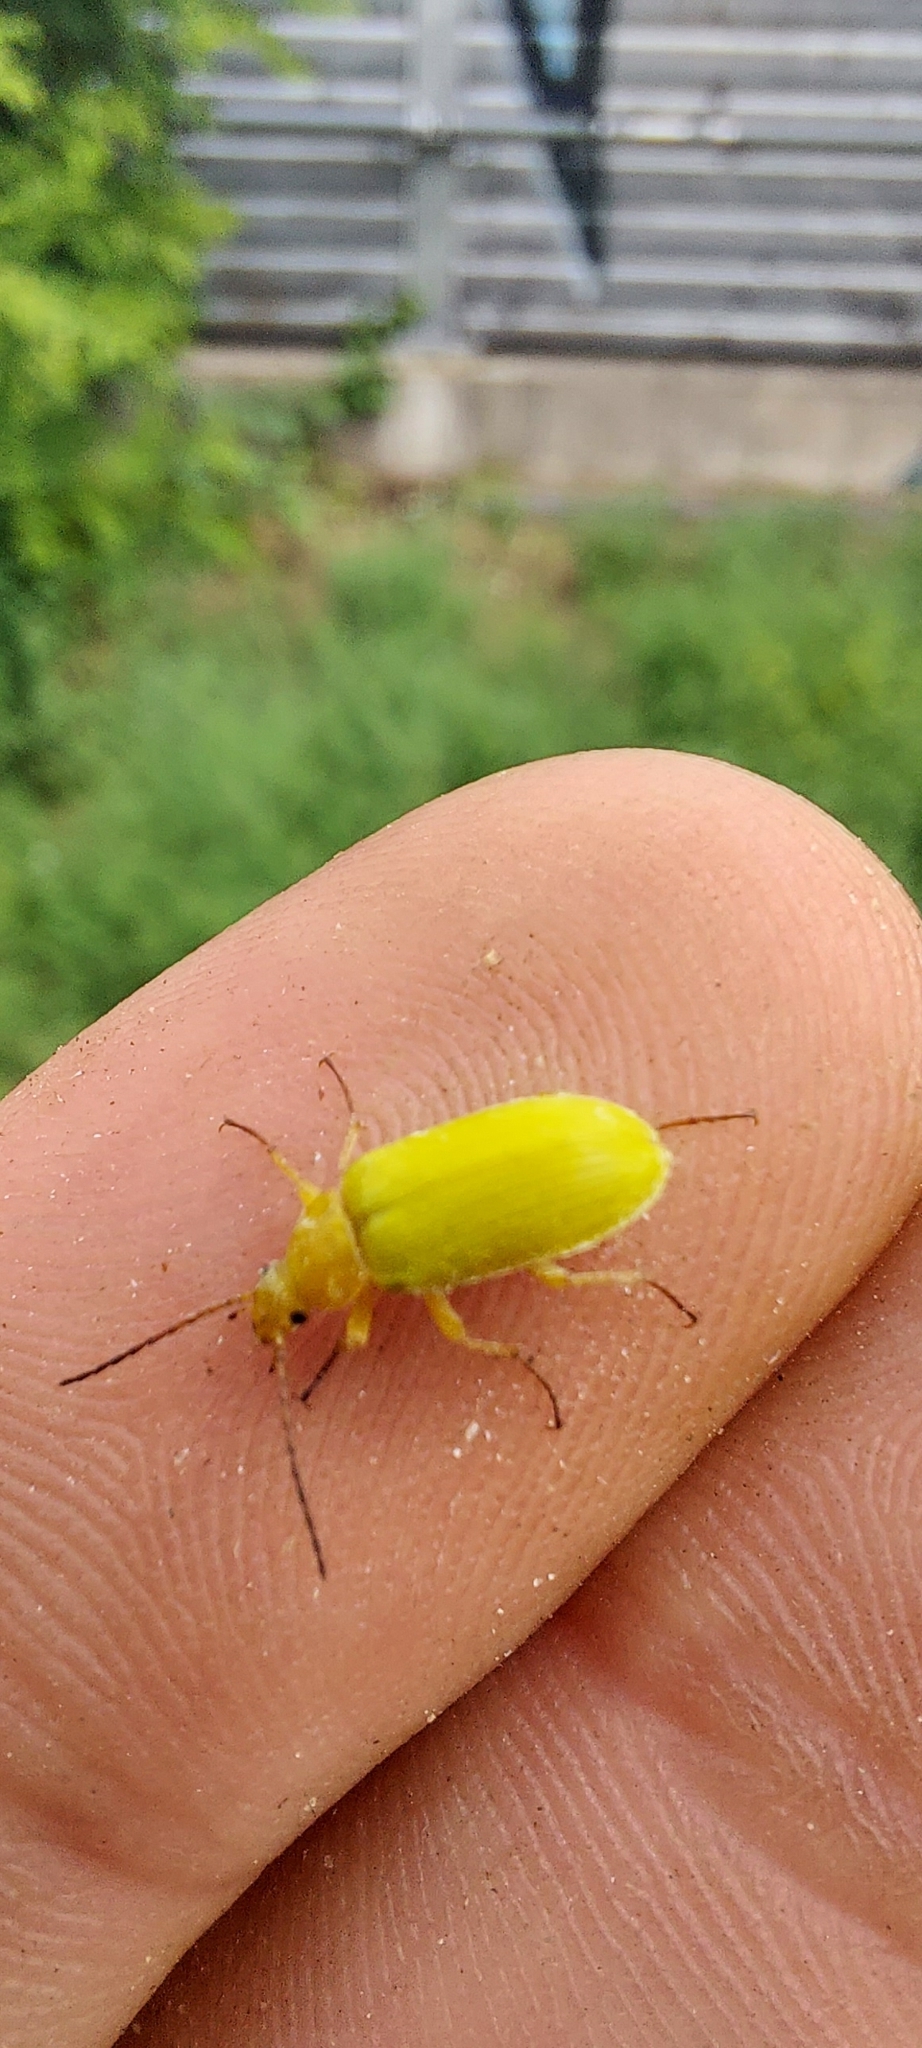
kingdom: Animalia
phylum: Arthropoda
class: Insecta
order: Coleoptera
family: Tenebrionidae
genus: Cteniopus
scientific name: Cteniopus sulphureus
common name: Sulphur beetle
